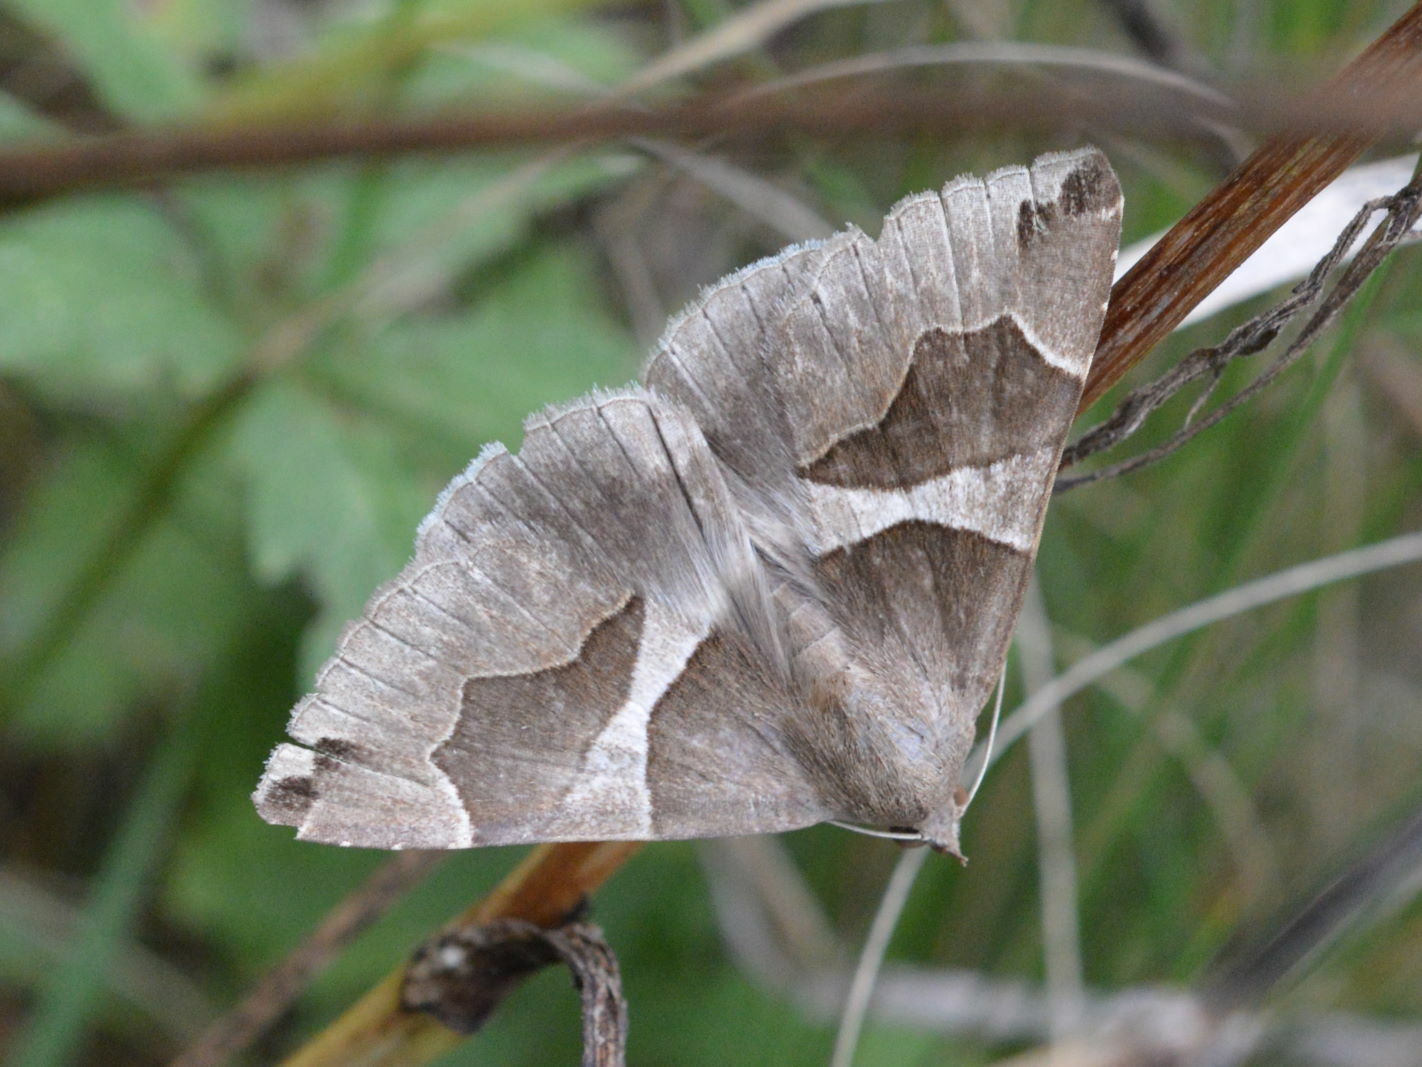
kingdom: Animalia
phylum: Arthropoda
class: Insecta
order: Lepidoptera
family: Erebidae
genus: Dysgonia
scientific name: Dysgonia algira
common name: Passenger
